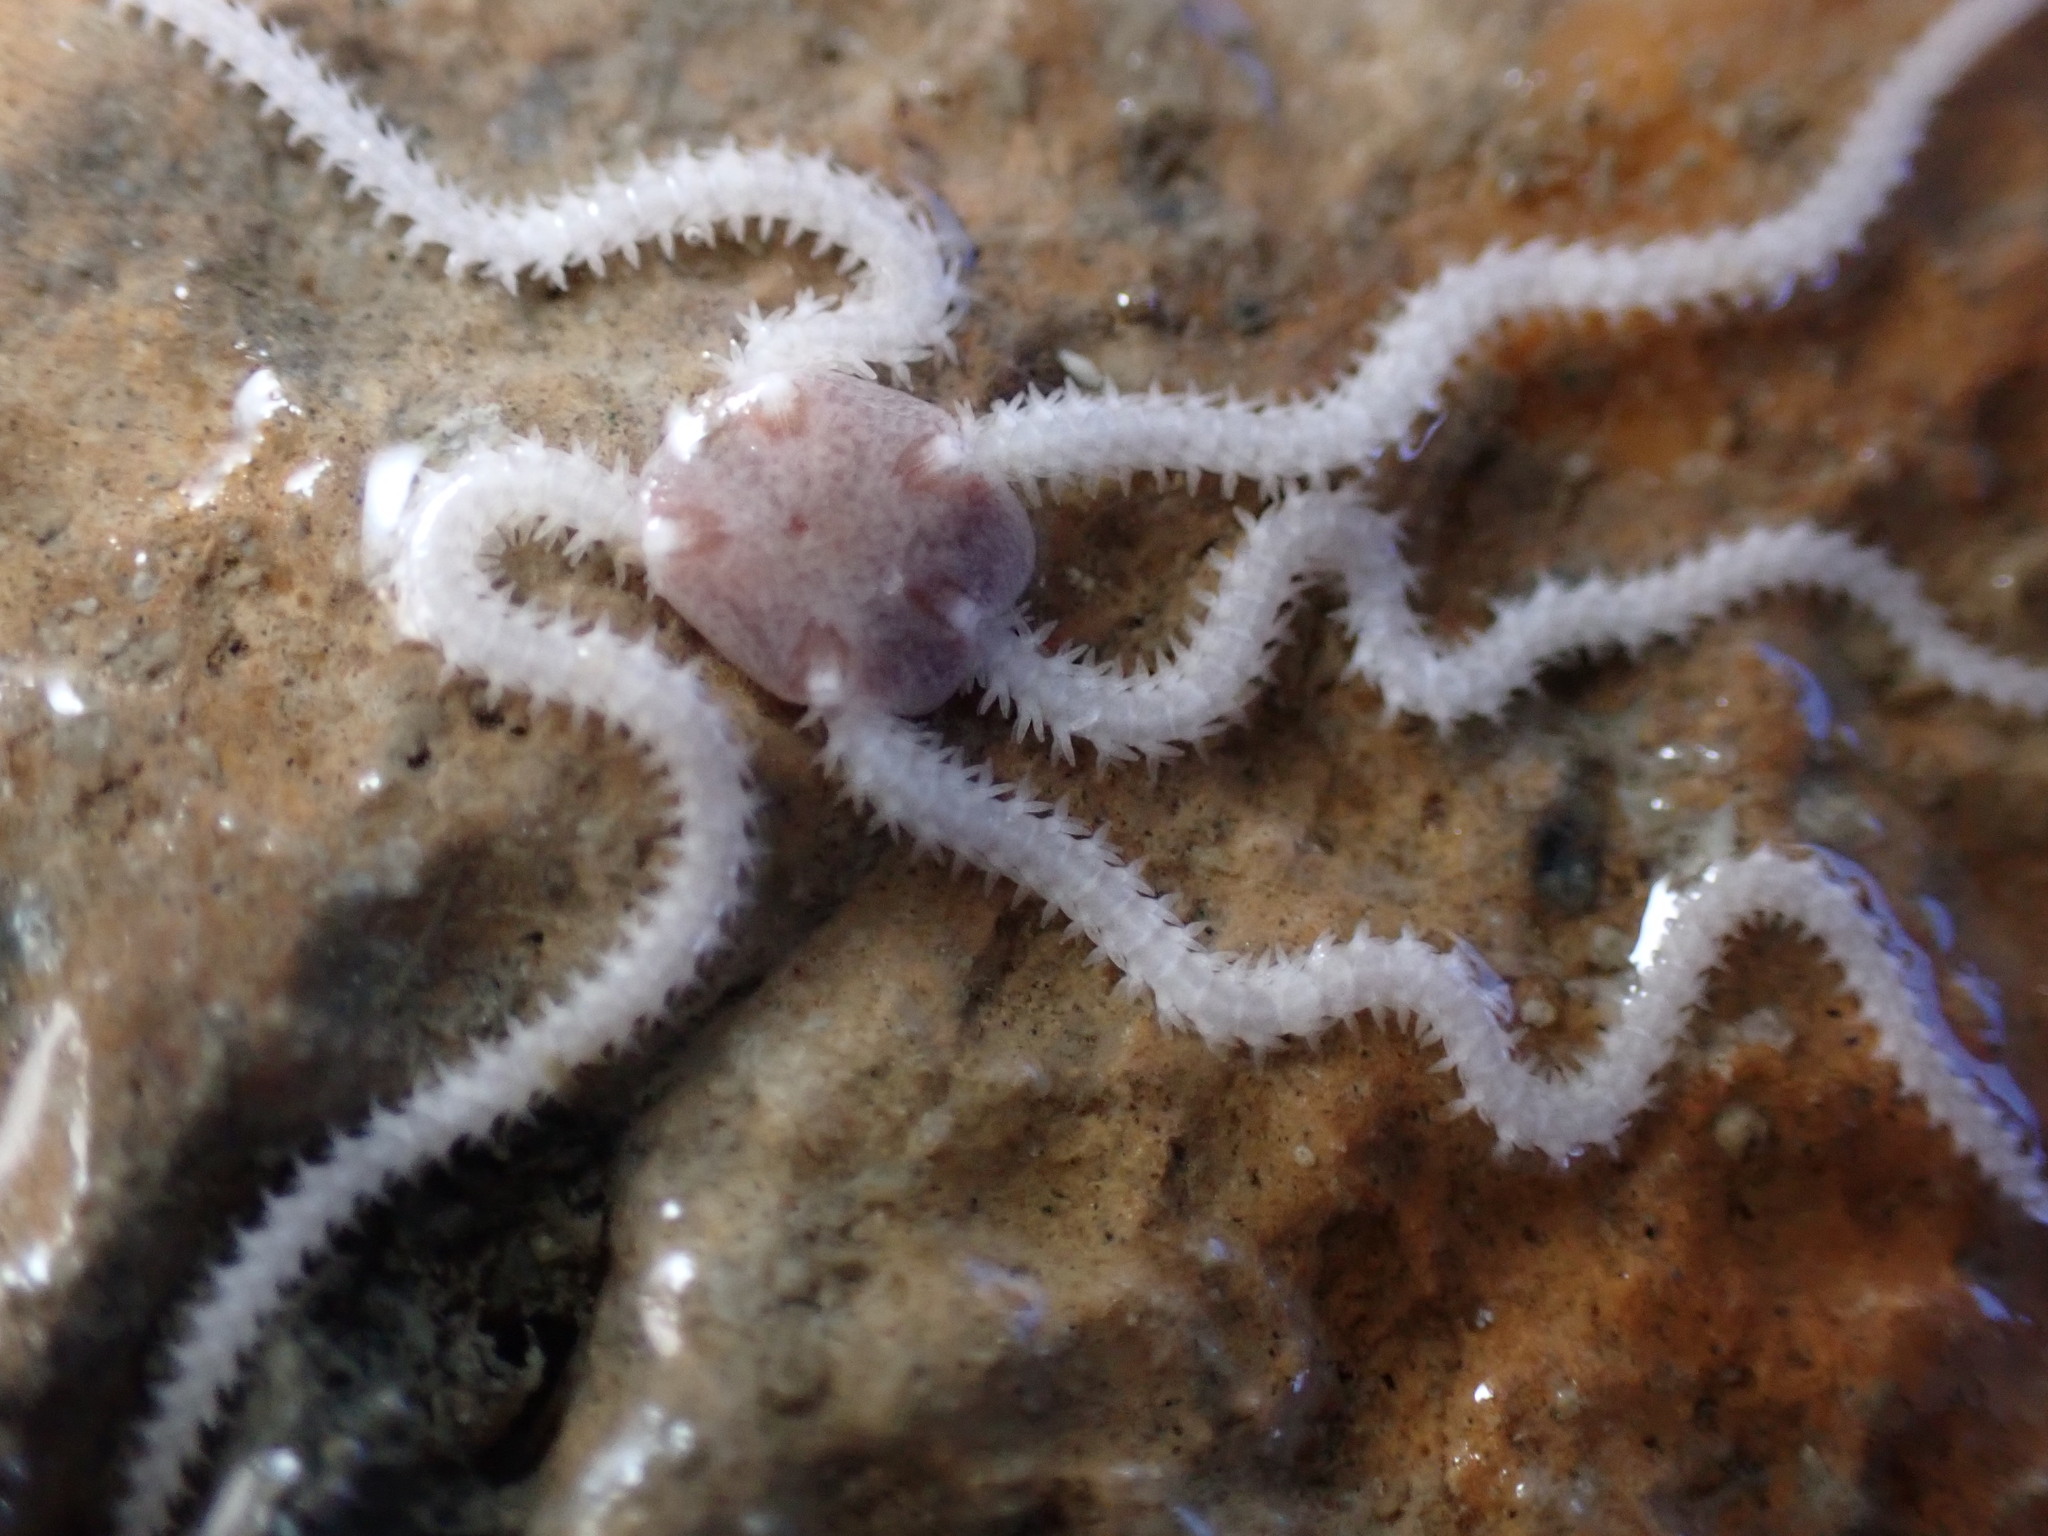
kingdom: Animalia
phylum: Echinodermata
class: Ophiuroidea
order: Amphilepidida
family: Amphiuridae
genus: Amphipholis
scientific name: Amphipholis squamata
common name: Brooding snake star
